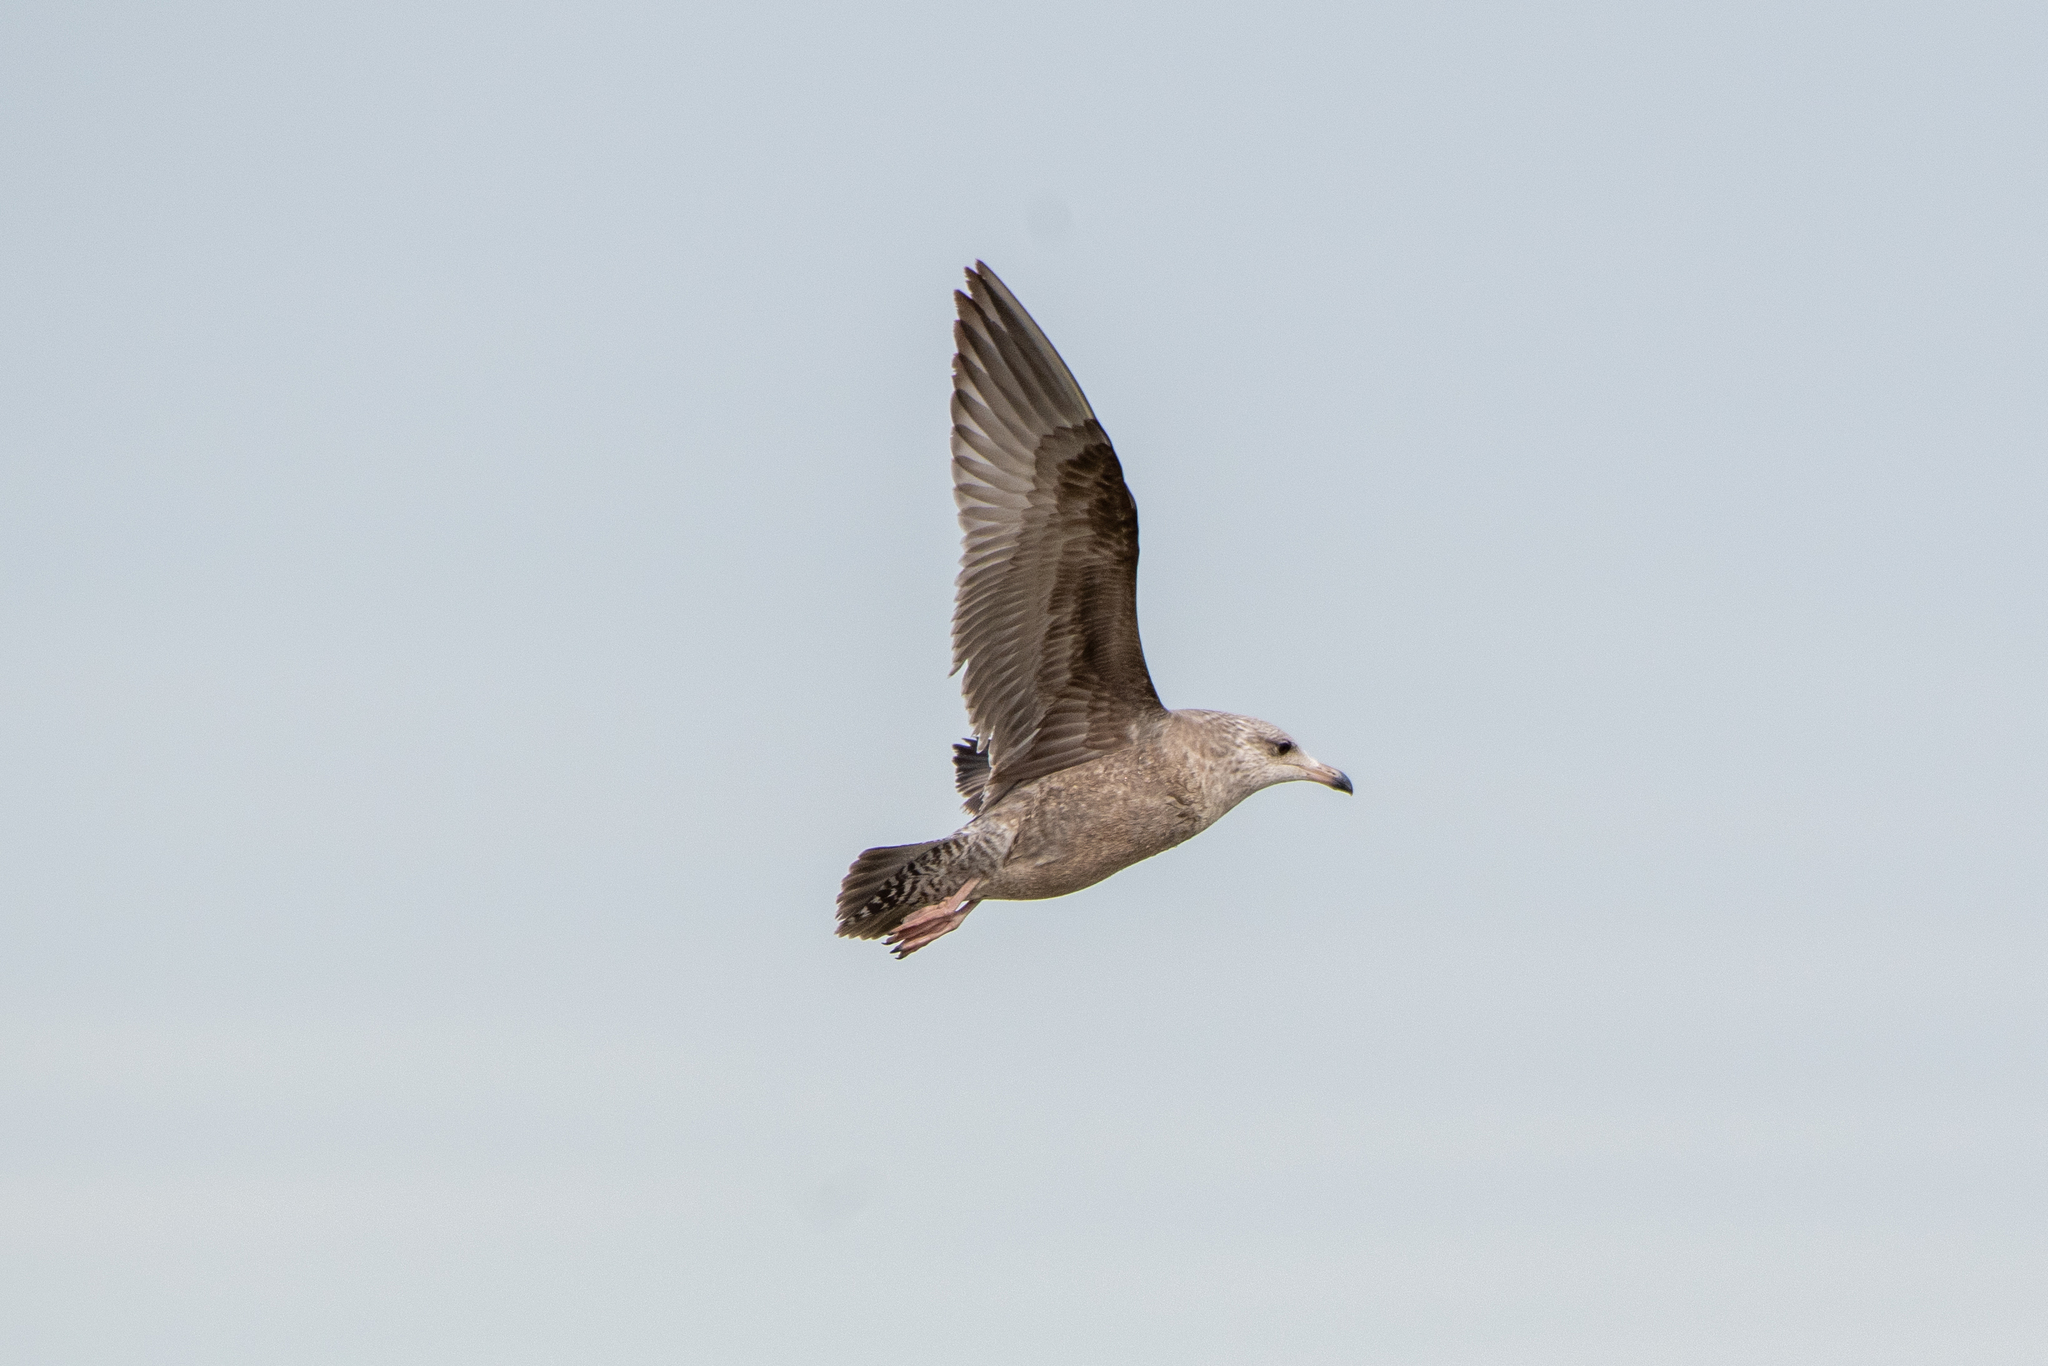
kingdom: Animalia
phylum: Chordata
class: Aves
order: Charadriiformes
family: Laridae
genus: Larus
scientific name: Larus delawarensis
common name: Ring-billed gull
